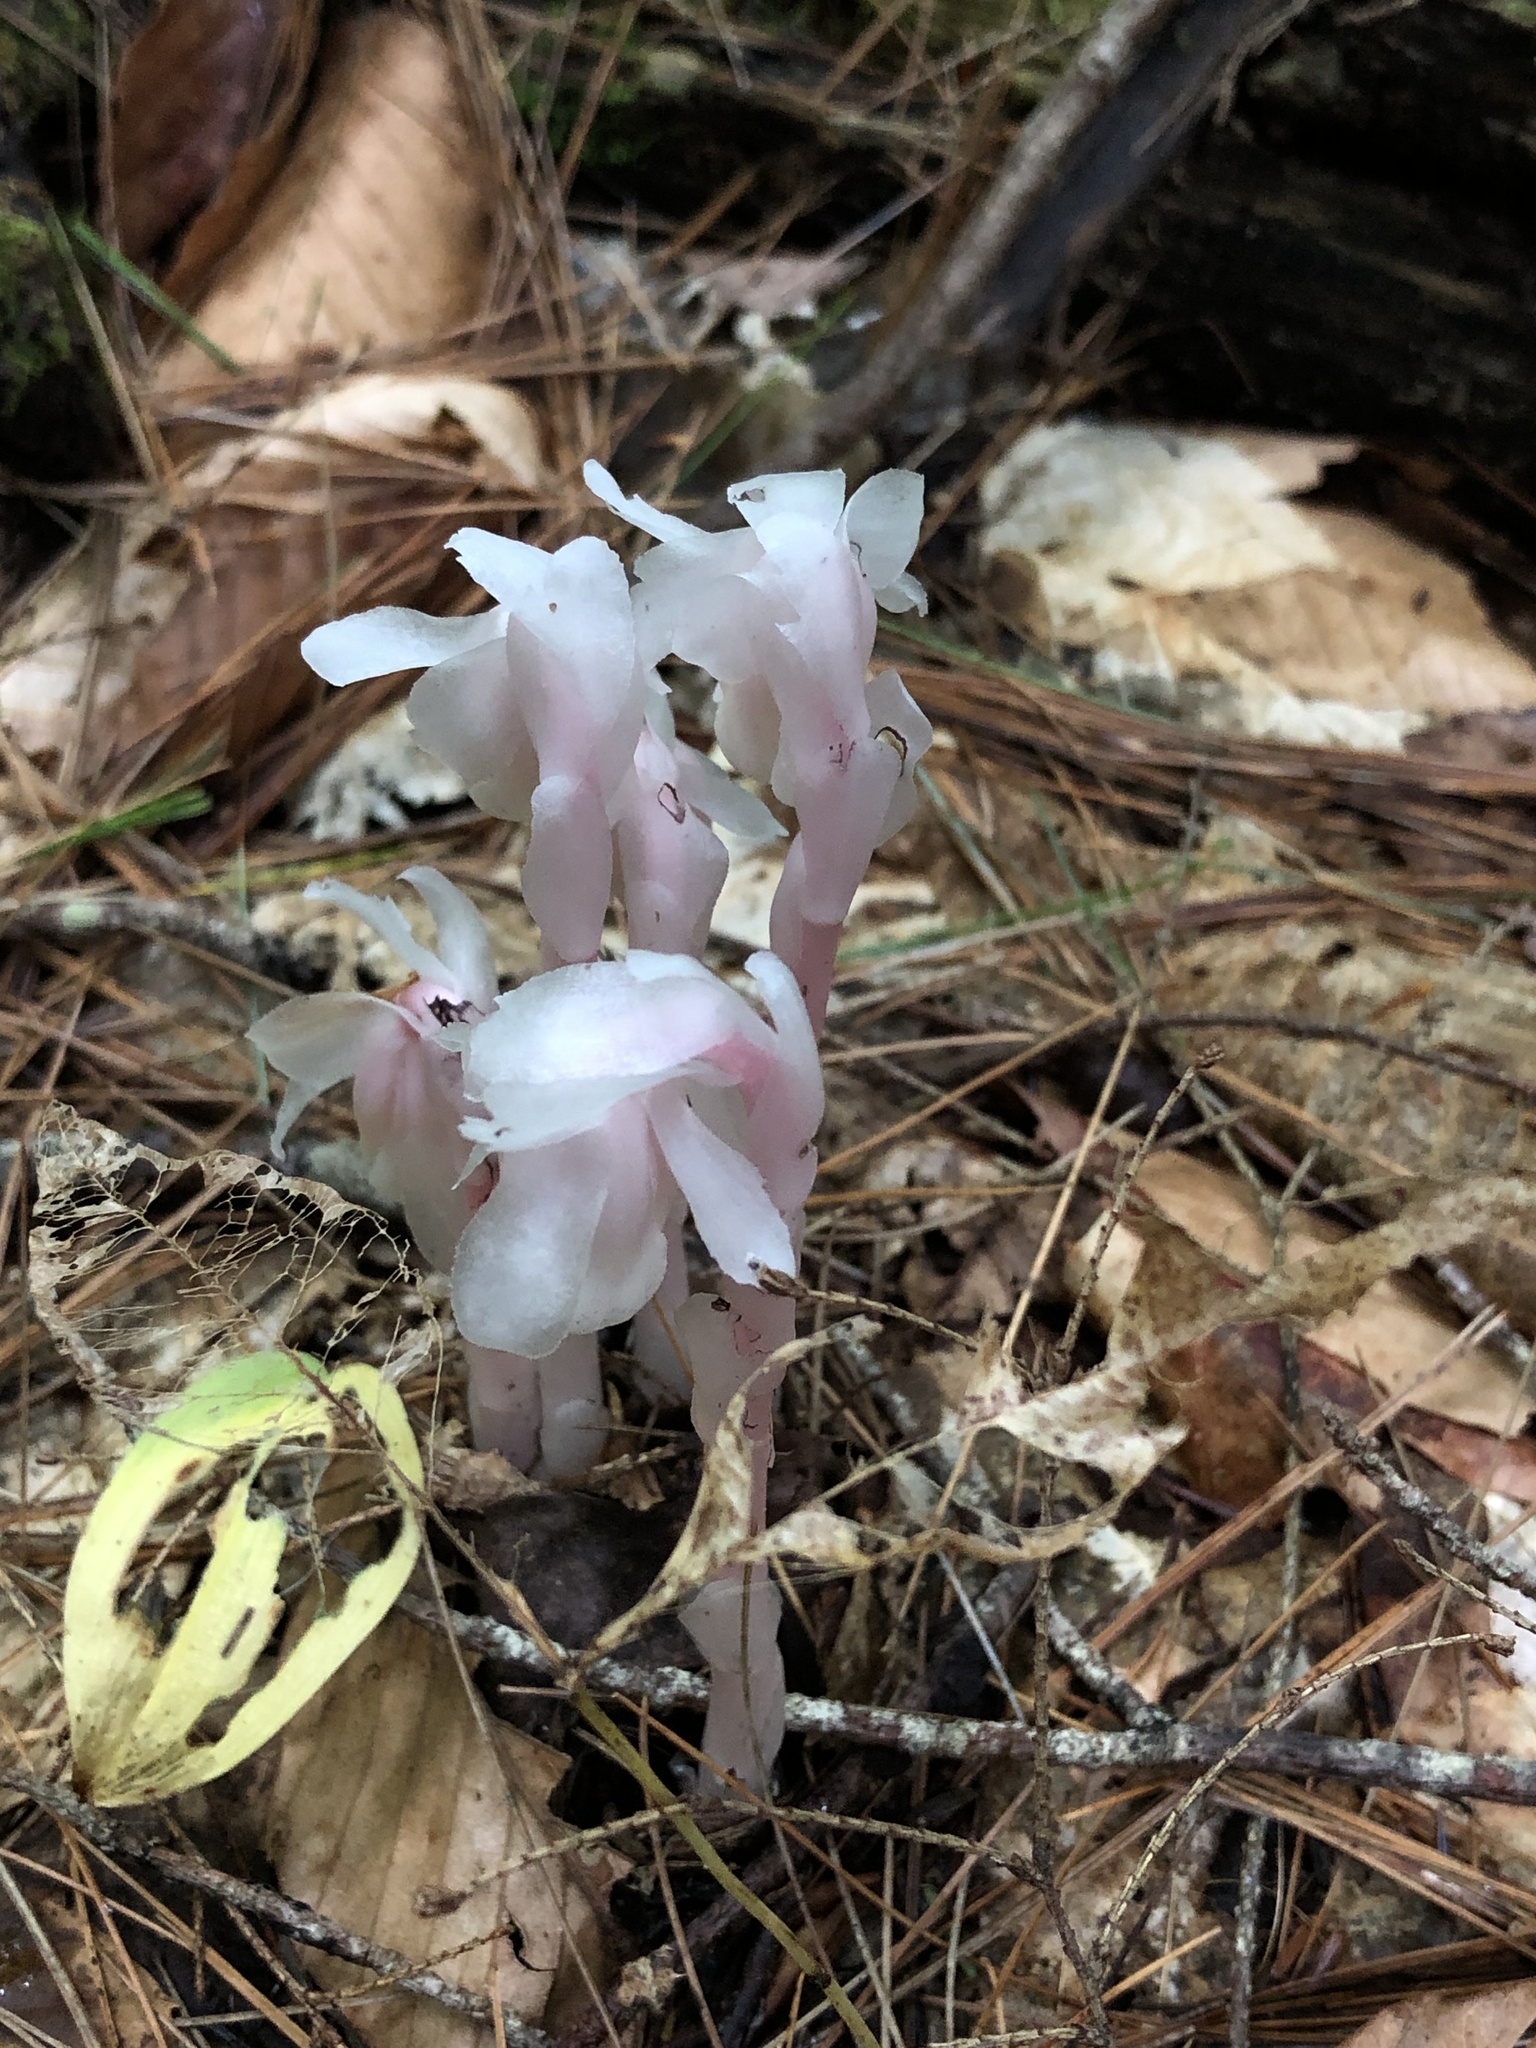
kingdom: Plantae
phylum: Tracheophyta
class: Magnoliopsida
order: Ericales
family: Ericaceae
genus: Monotropa
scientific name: Monotropa uniflora
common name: Convulsion root
